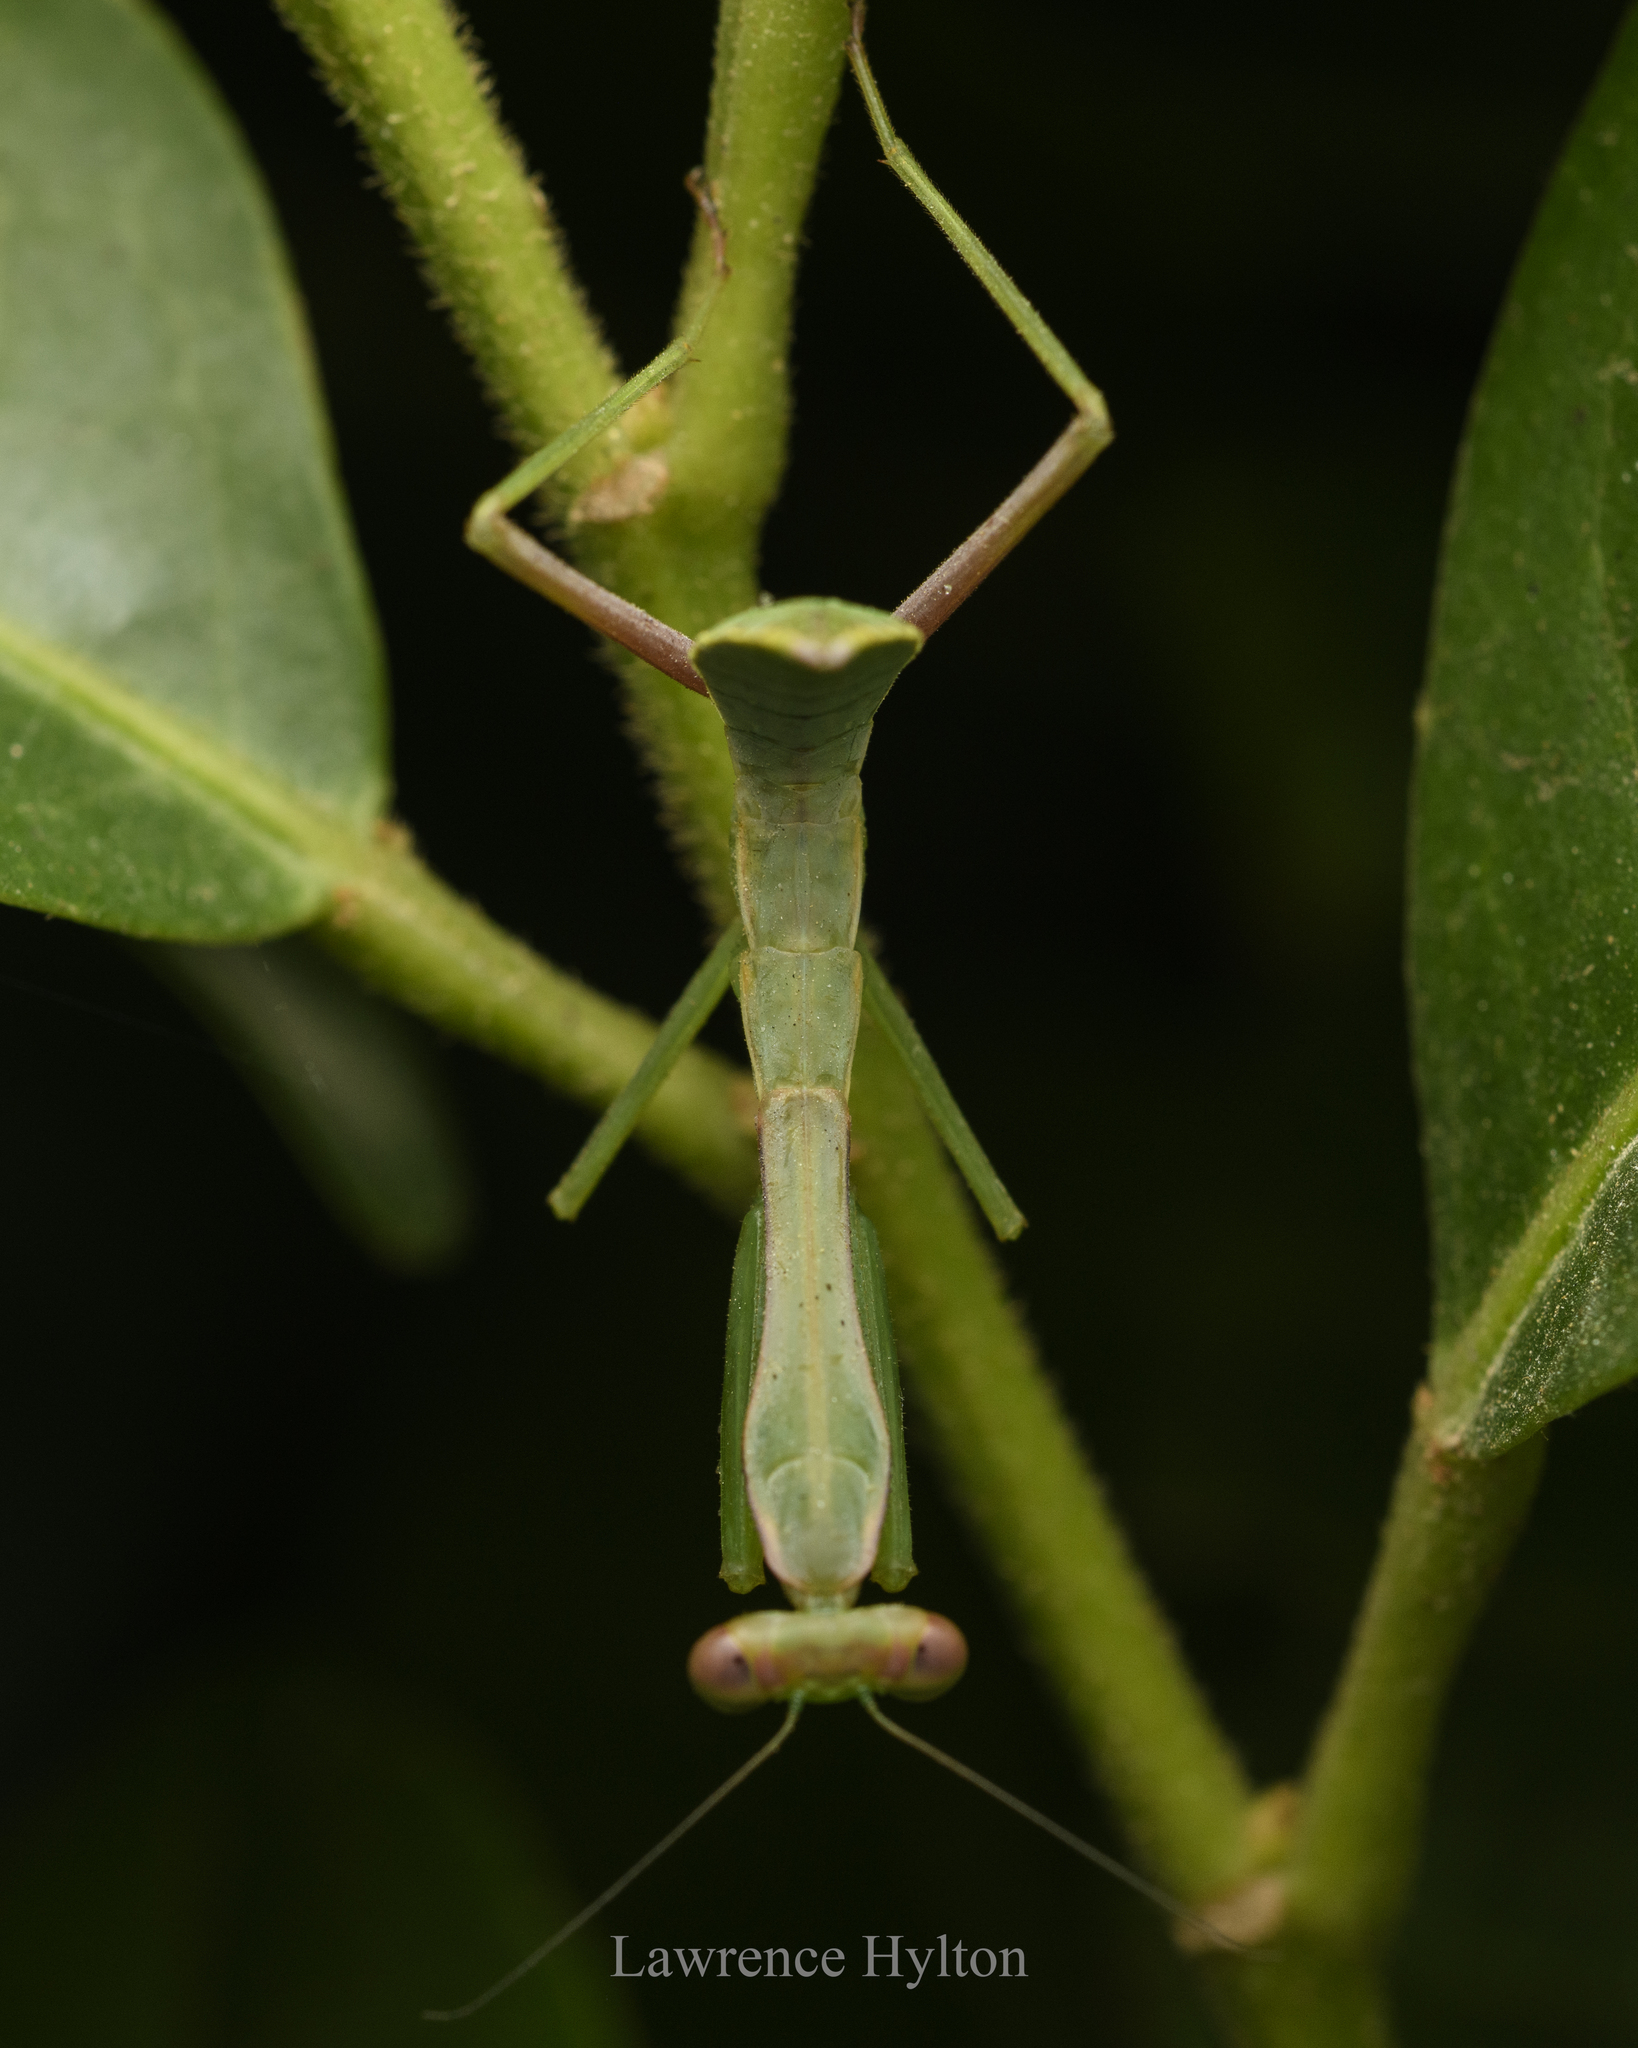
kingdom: Animalia
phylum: Arthropoda
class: Insecta
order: Mantodea
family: Mantidae
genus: Titanodula
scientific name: Titanodula formosana
